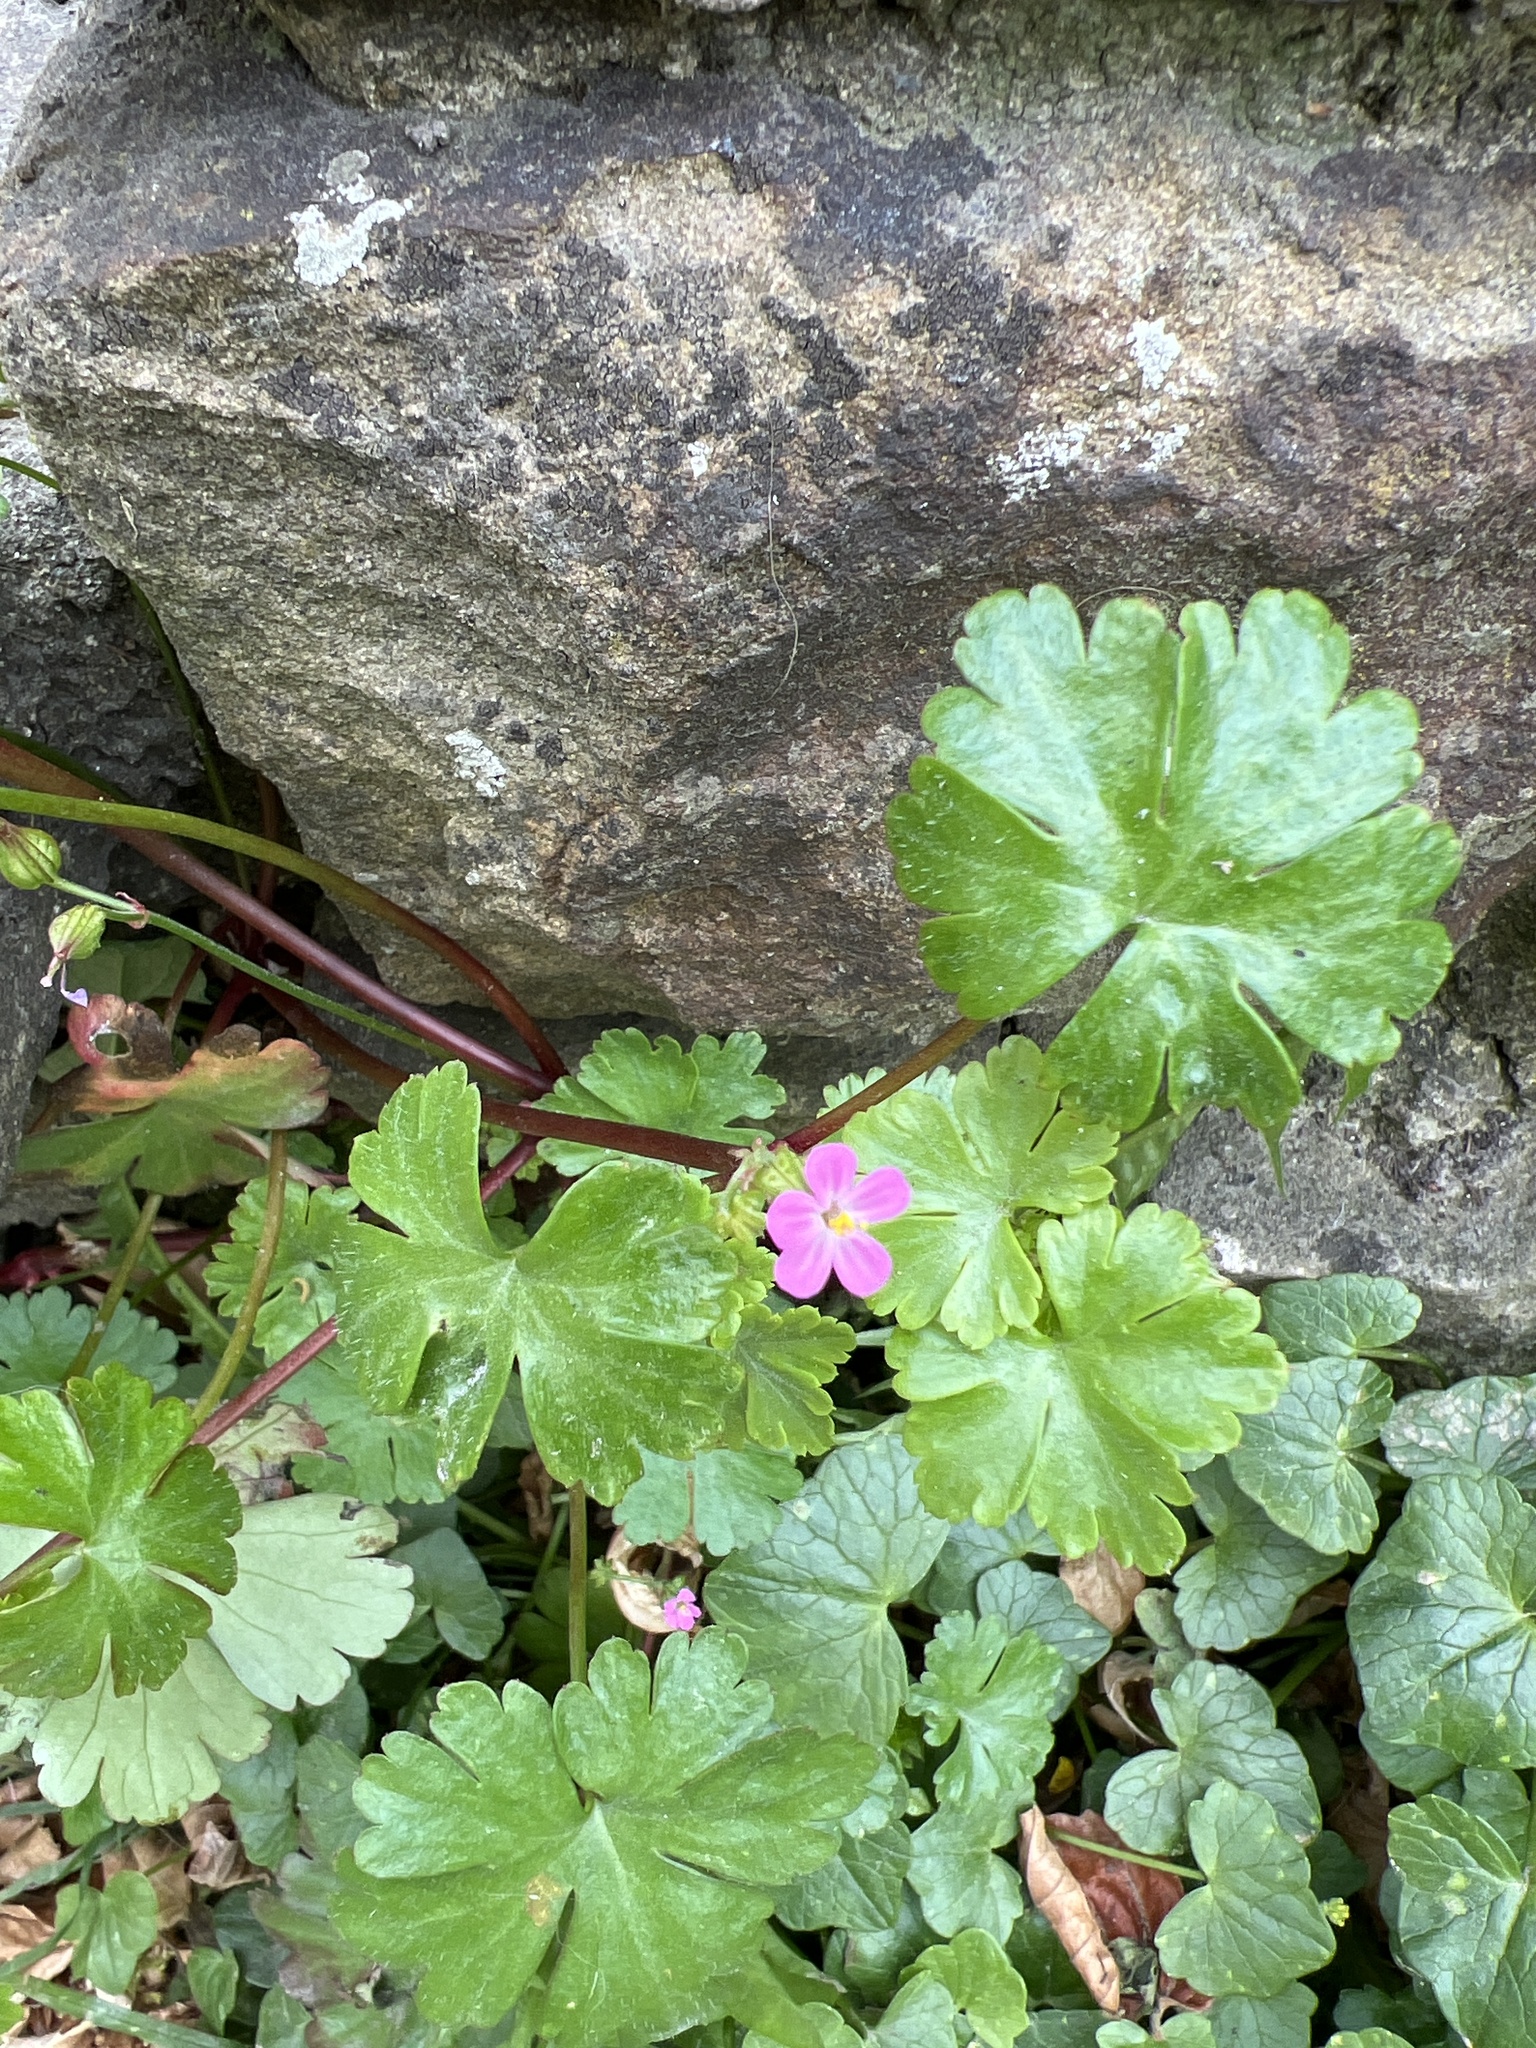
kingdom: Plantae
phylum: Tracheophyta
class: Magnoliopsida
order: Geraniales
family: Geraniaceae
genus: Geranium
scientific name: Geranium lucidum
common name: Shining crane's-bill
